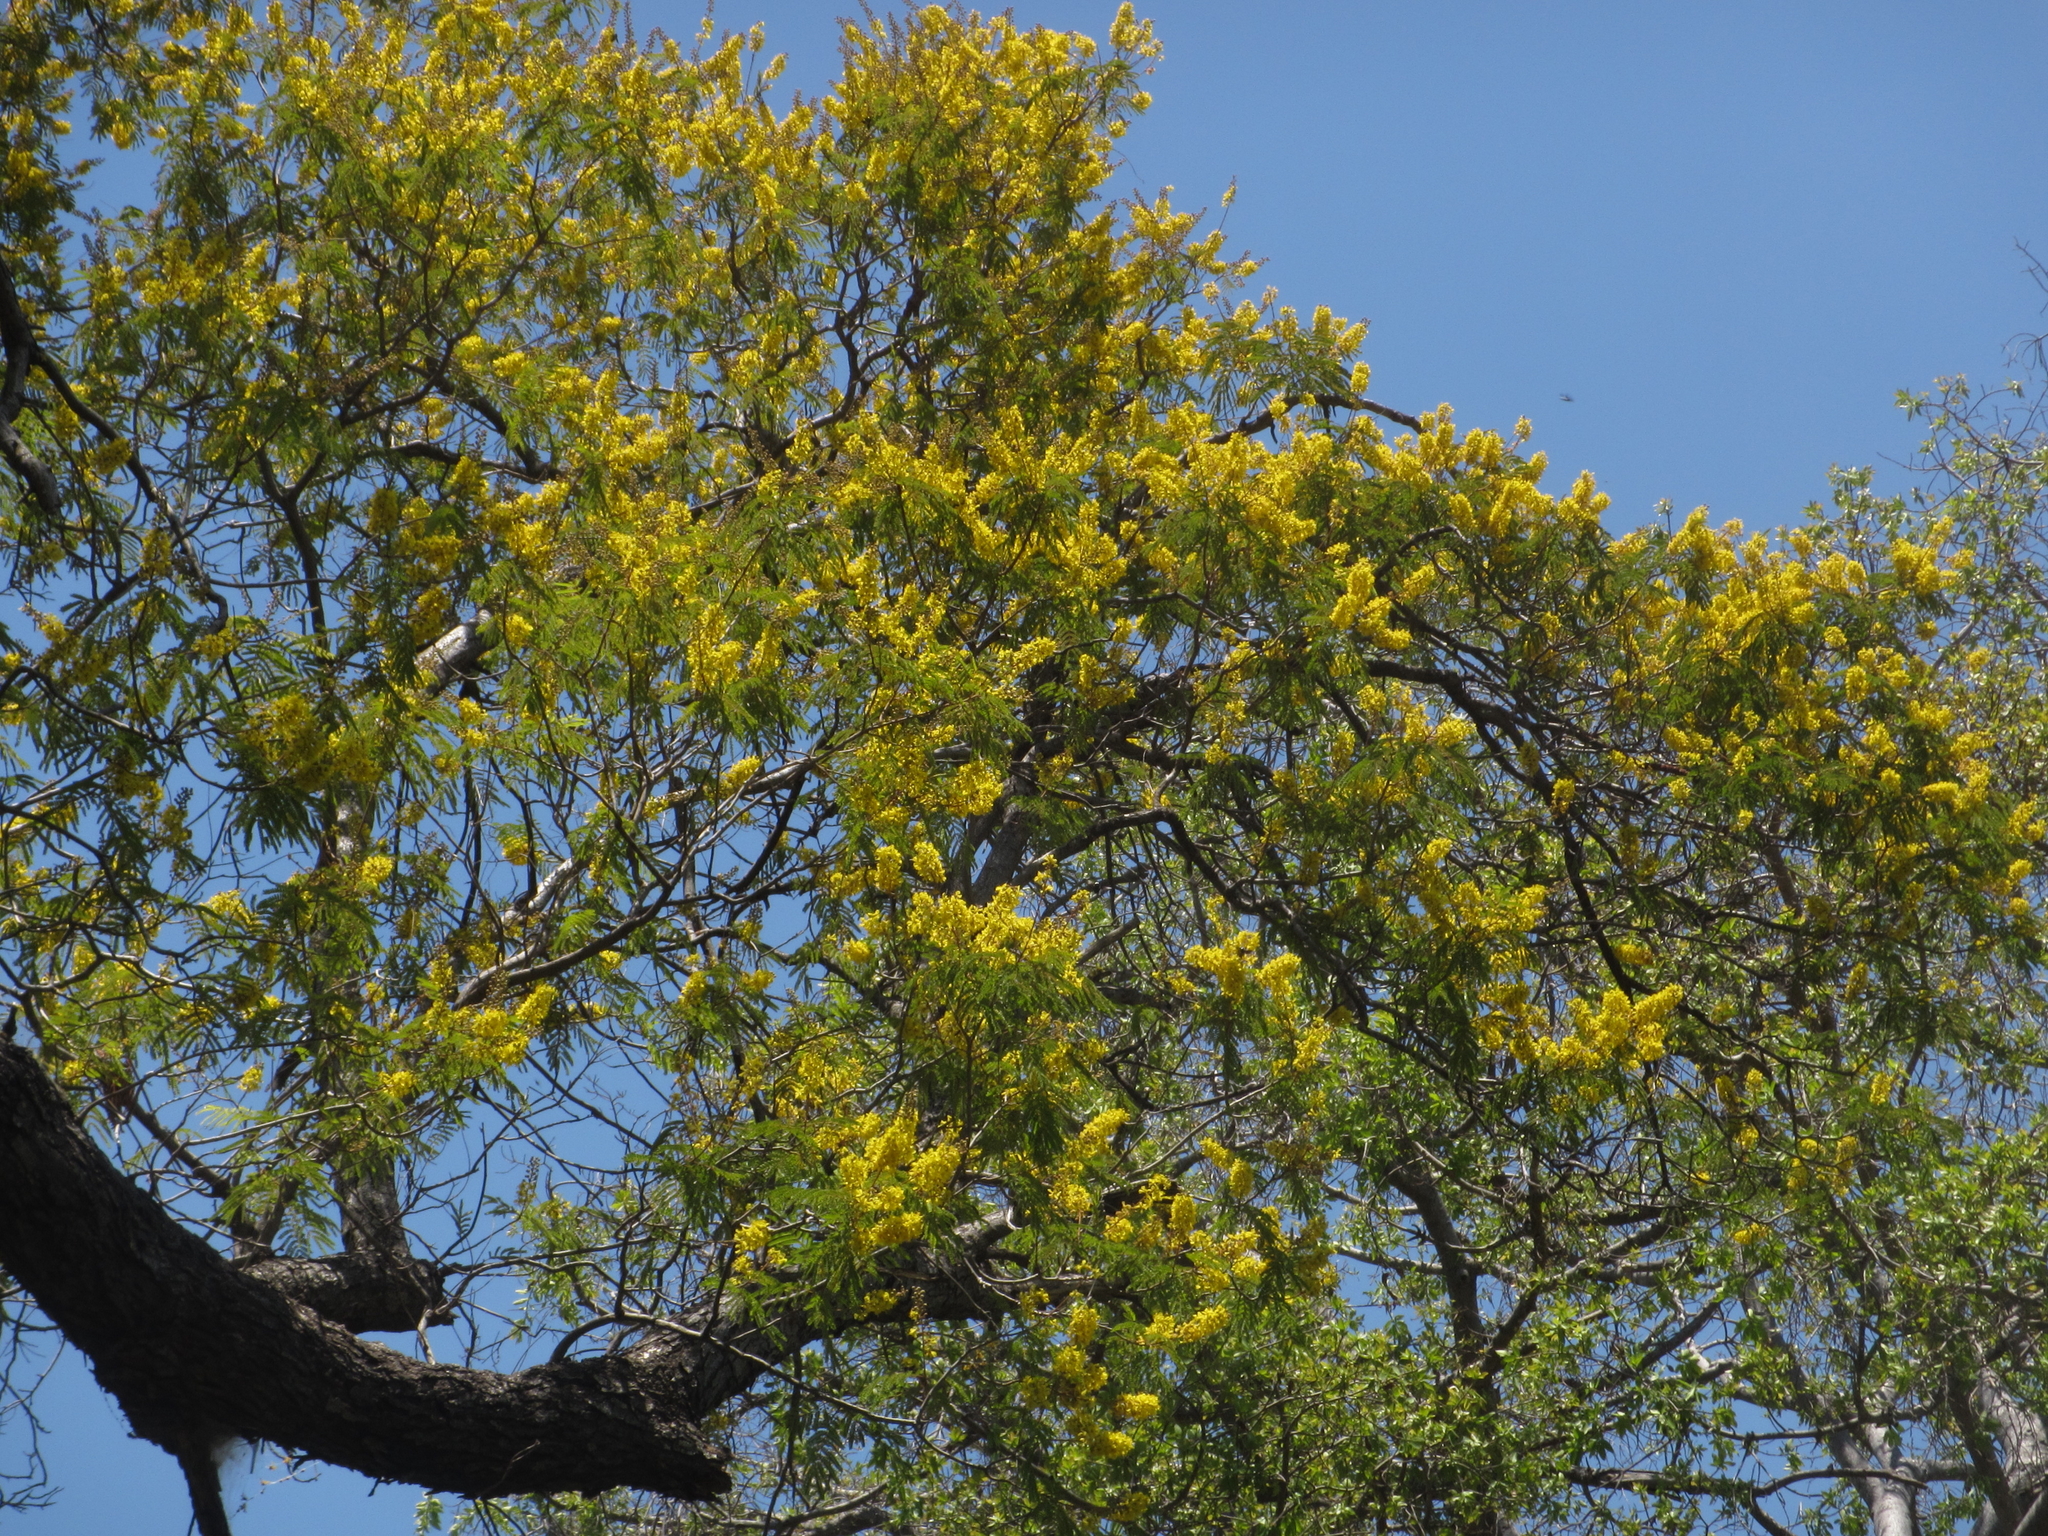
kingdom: Plantae
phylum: Tracheophyta
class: Magnoliopsida
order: Fabales
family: Fabaceae
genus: Peltophorum
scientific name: Peltophorum africanum
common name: African black wattle
